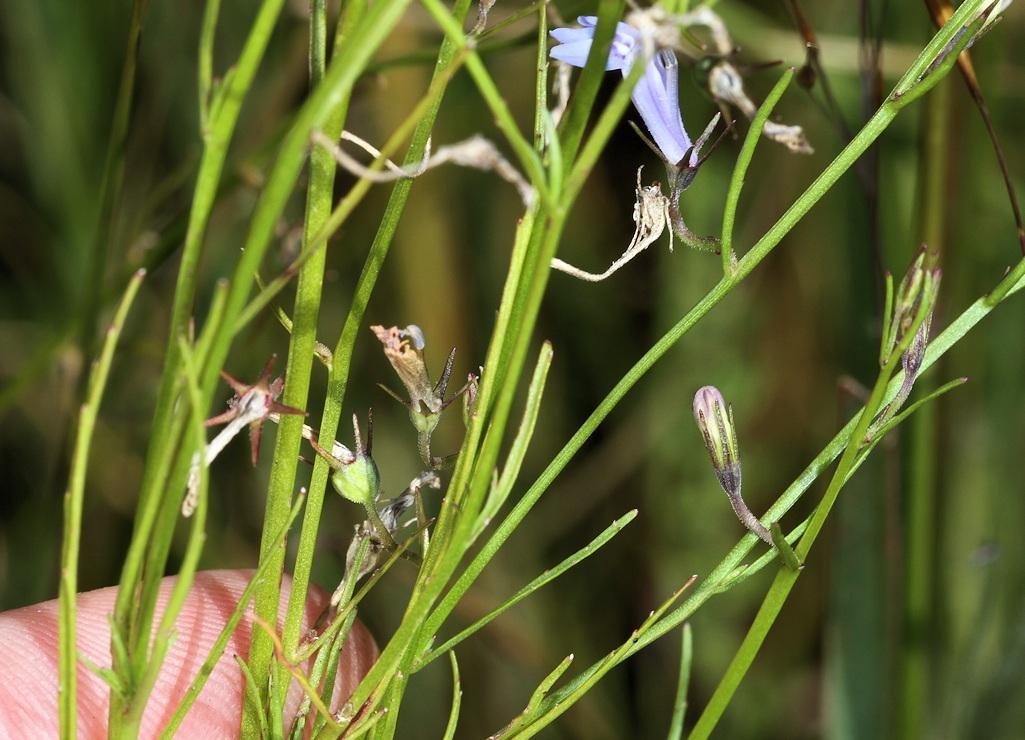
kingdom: Plantae
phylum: Tracheophyta
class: Magnoliopsida
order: Asterales
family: Campanulaceae
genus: Lobelia
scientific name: Lobelia flaccida
